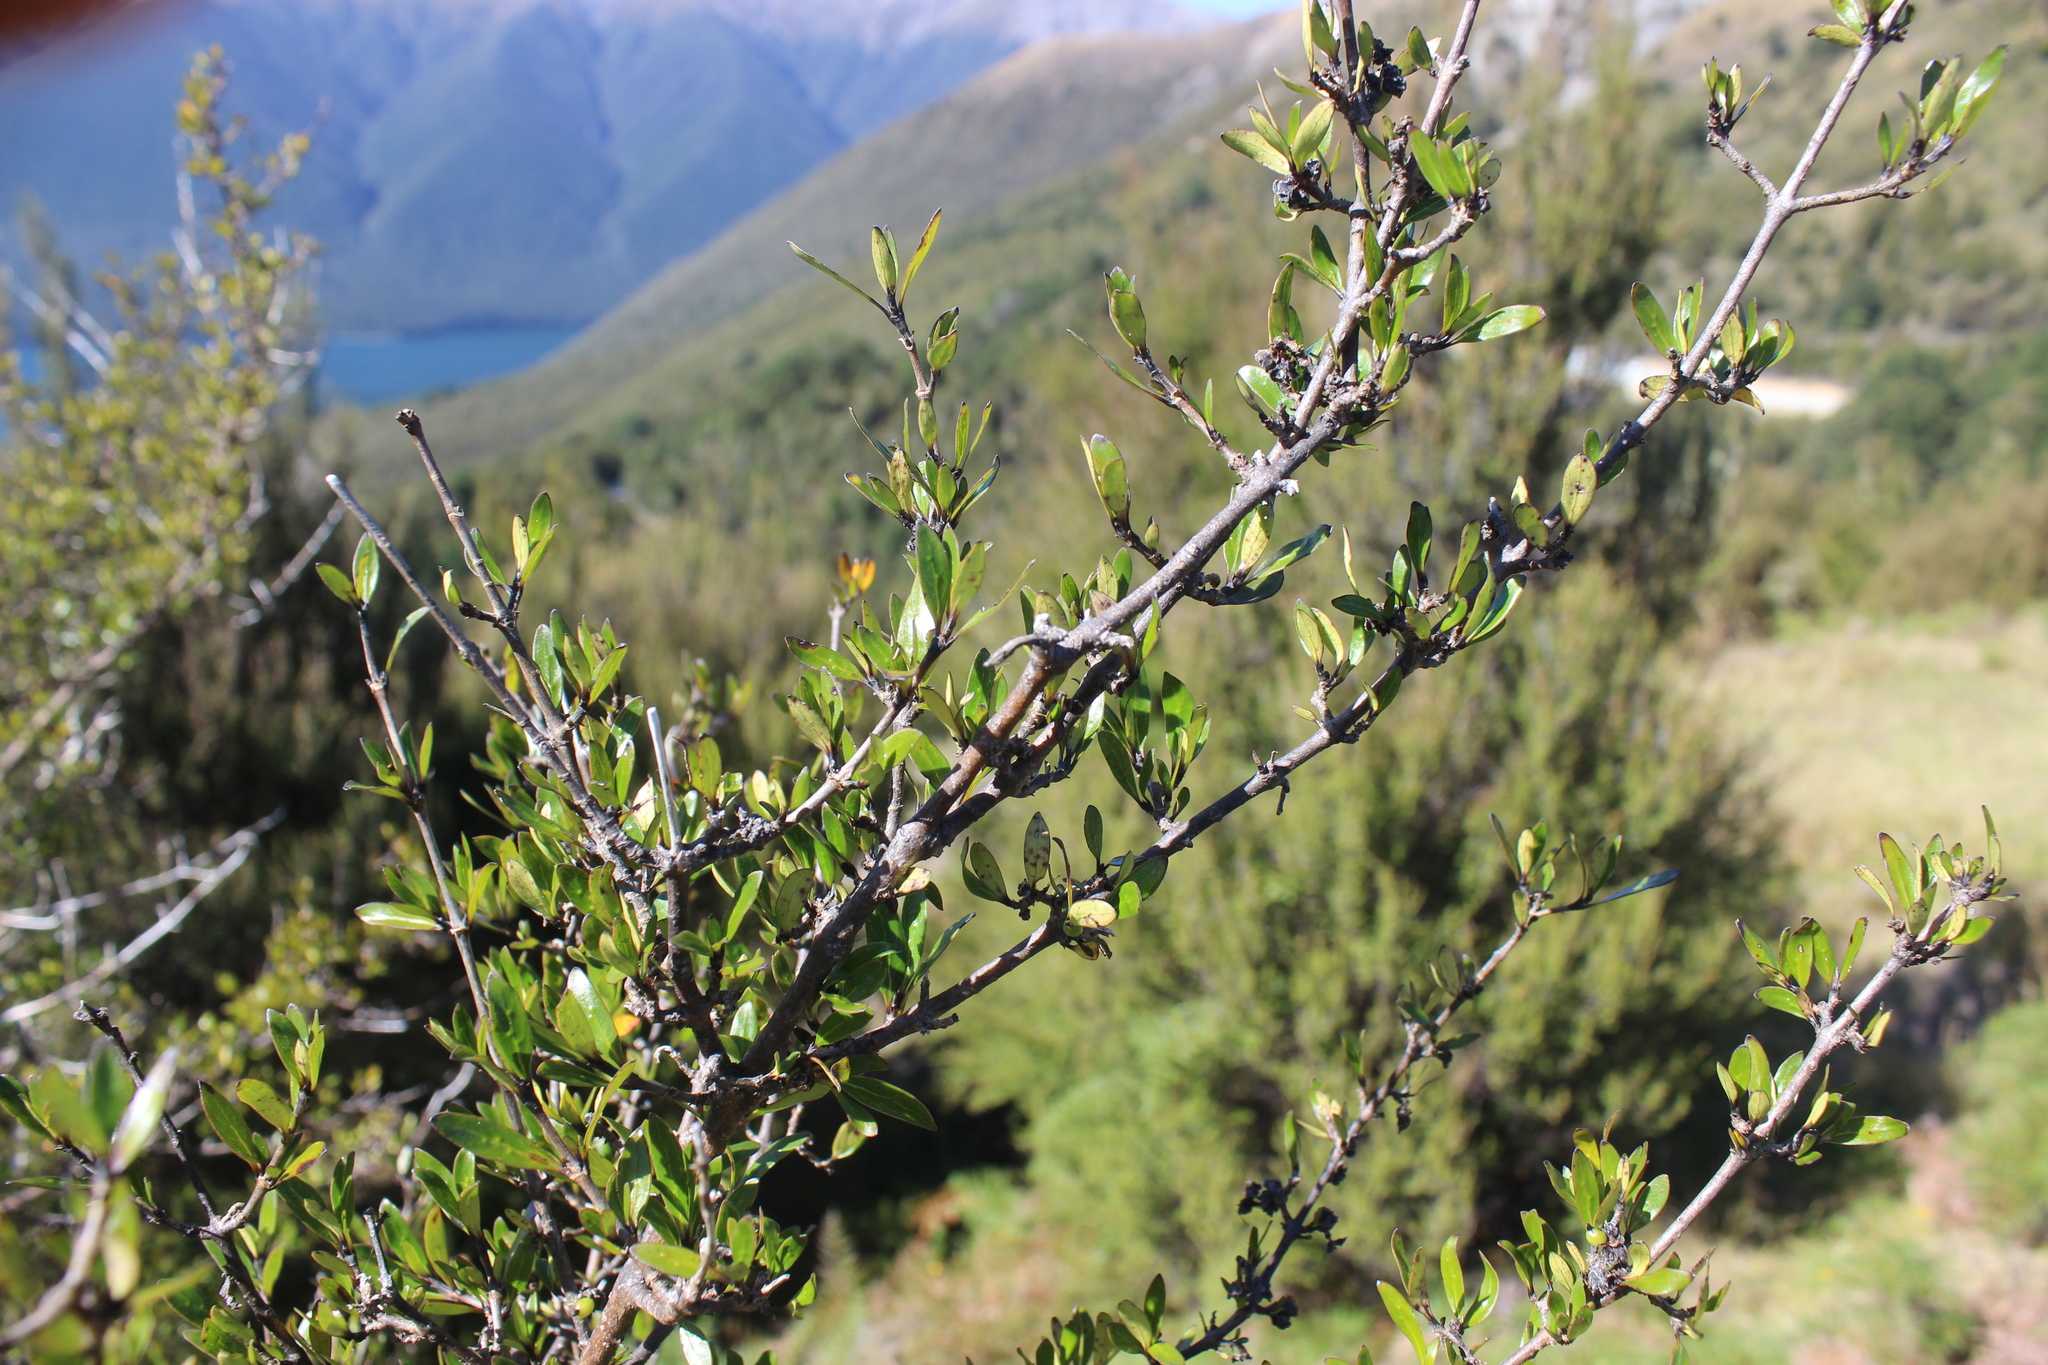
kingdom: Plantae
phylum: Tracheophyta
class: Magnoliopsida
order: Gentianales
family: Rubiaceae
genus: Coprosma
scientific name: Coprosma cunninghamii
